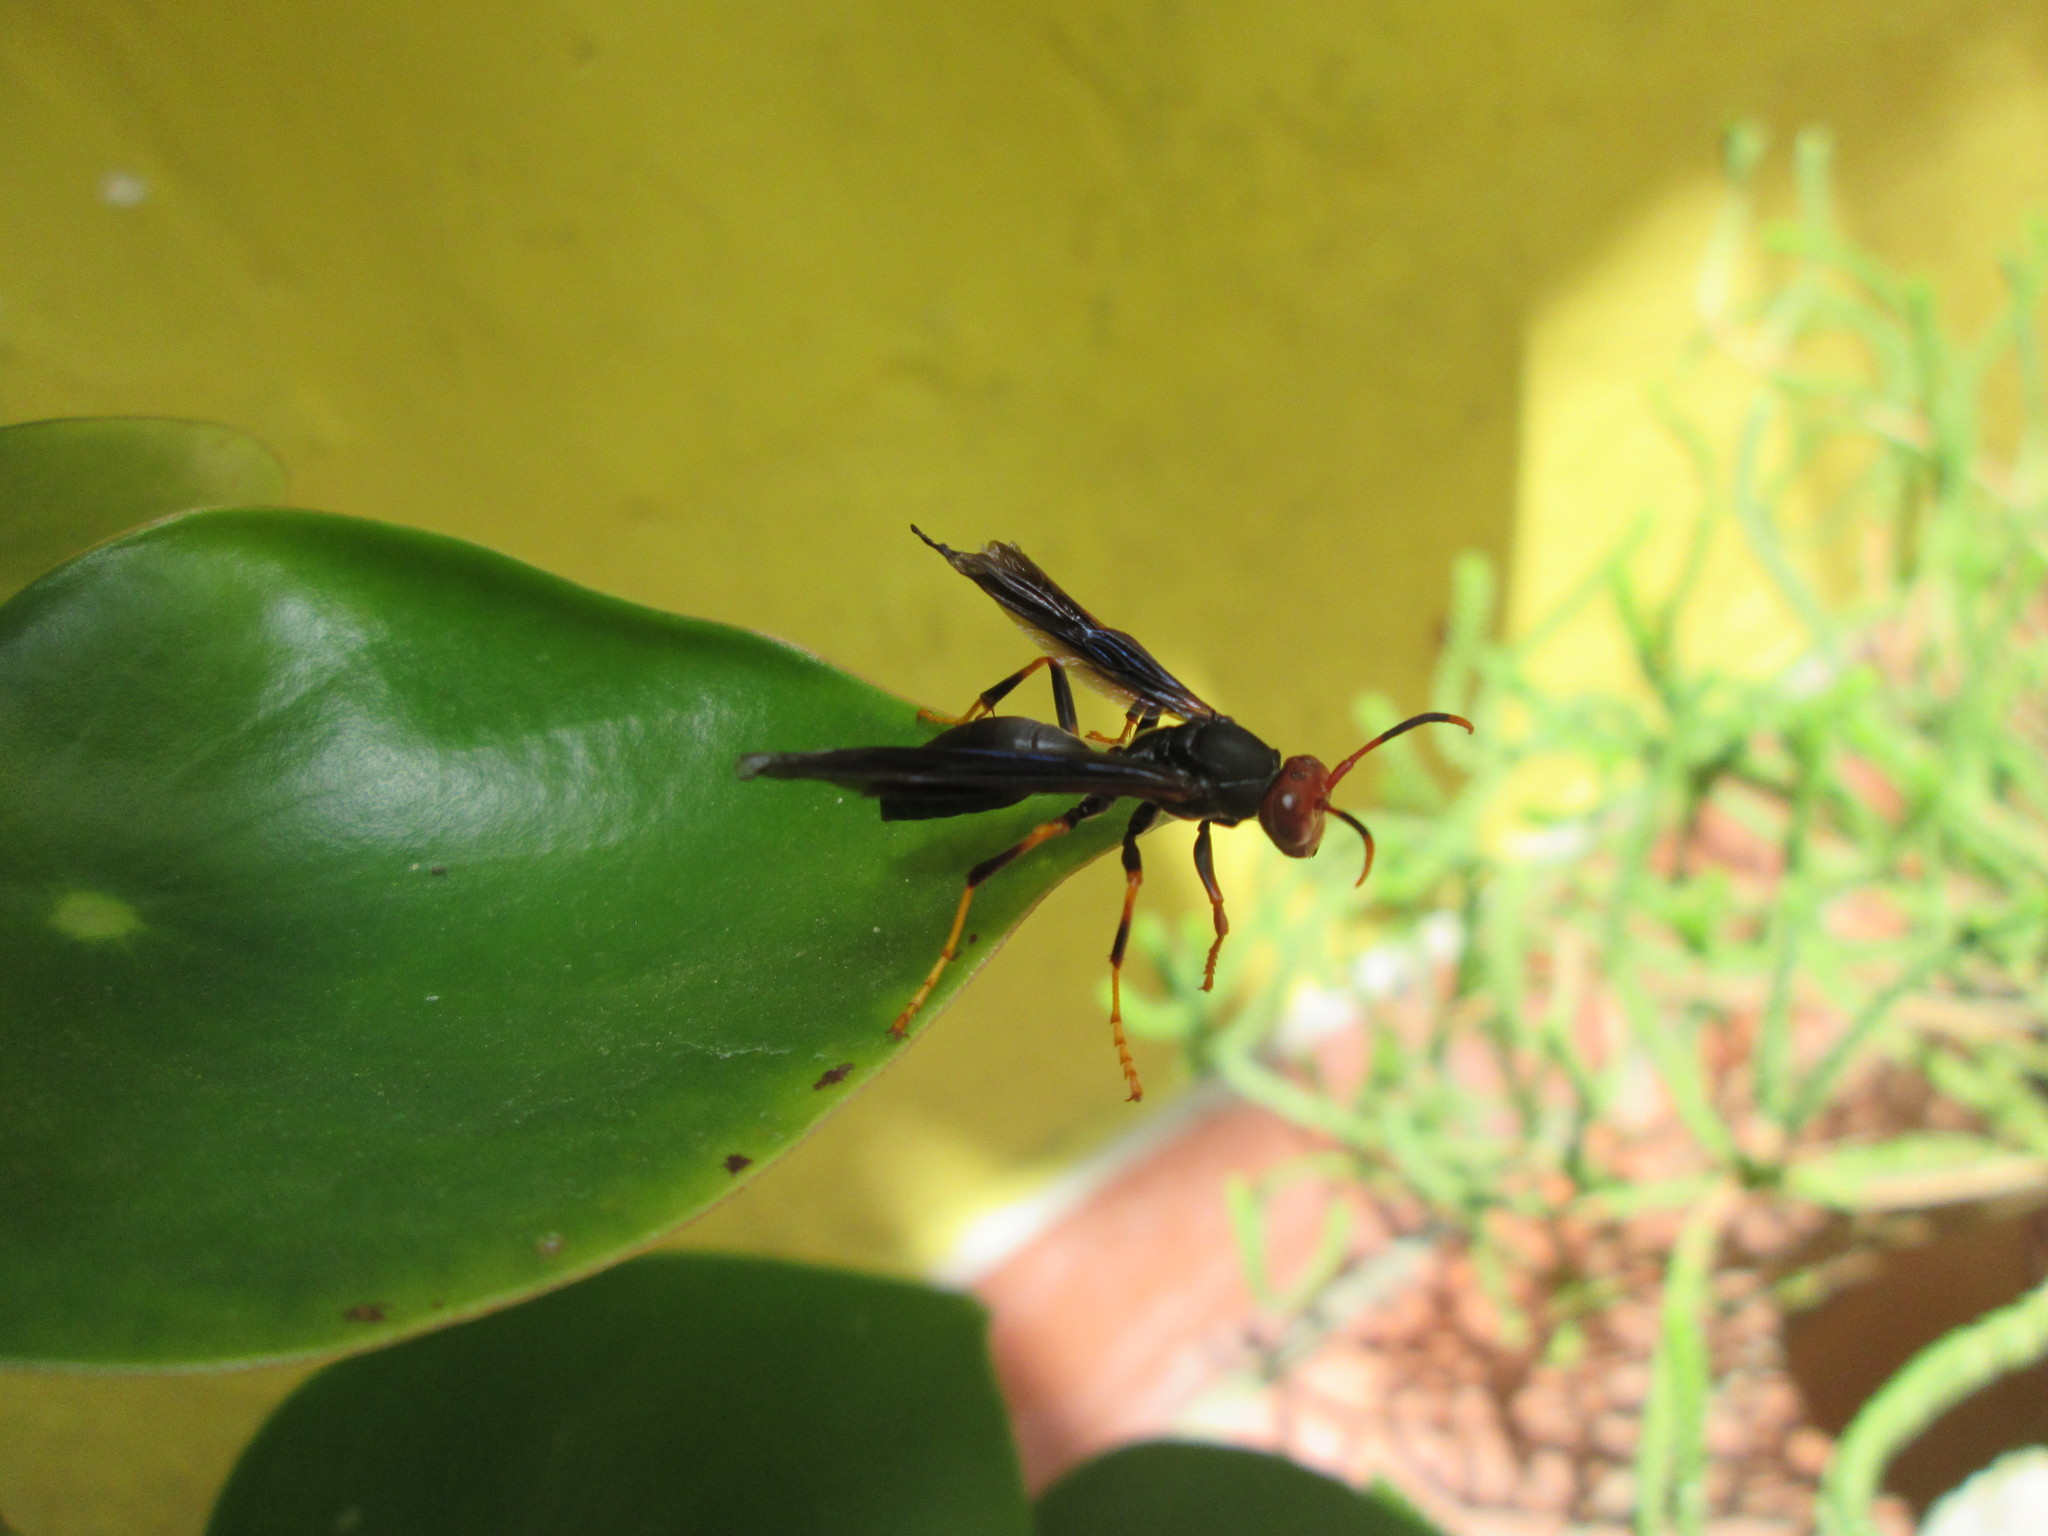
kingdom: Animalia
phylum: Arthropoda
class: Insecta
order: Hymenoptera
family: Eumenidae
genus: Polistes
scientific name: Polistes erythrocephalus
